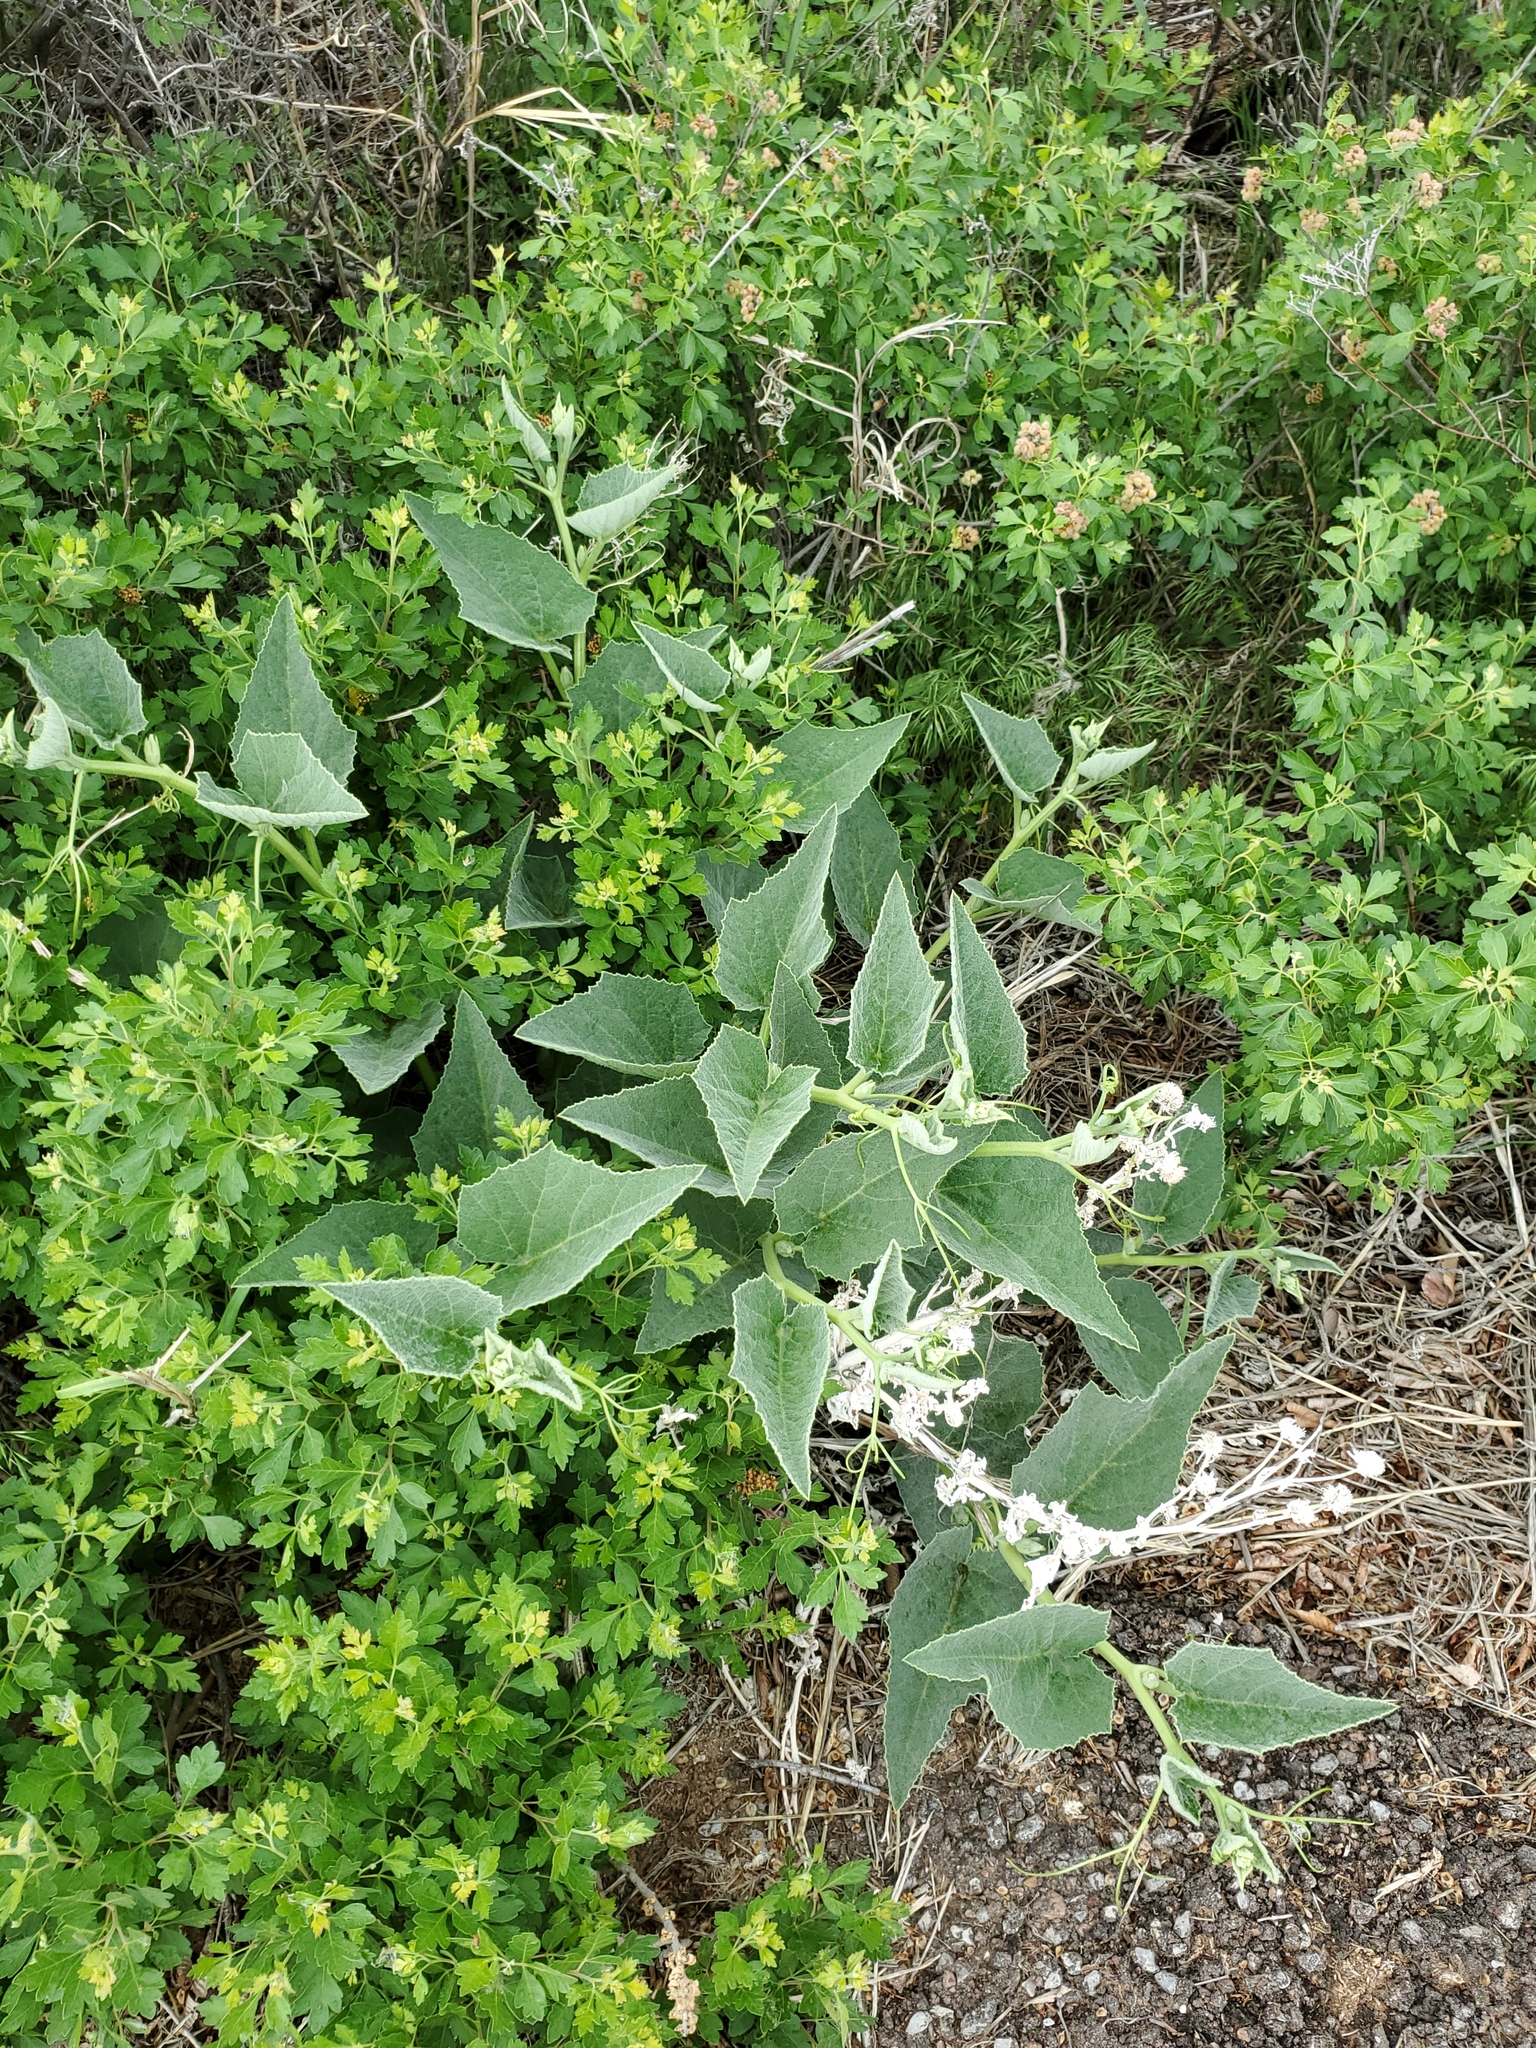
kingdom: Plantae
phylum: Tracheophyta
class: Magnoliopsida
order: Cucurbitales
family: Cucurbitaceae
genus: Cucurbita
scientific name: Cucurbita foetidissima
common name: Buffalo gourd
